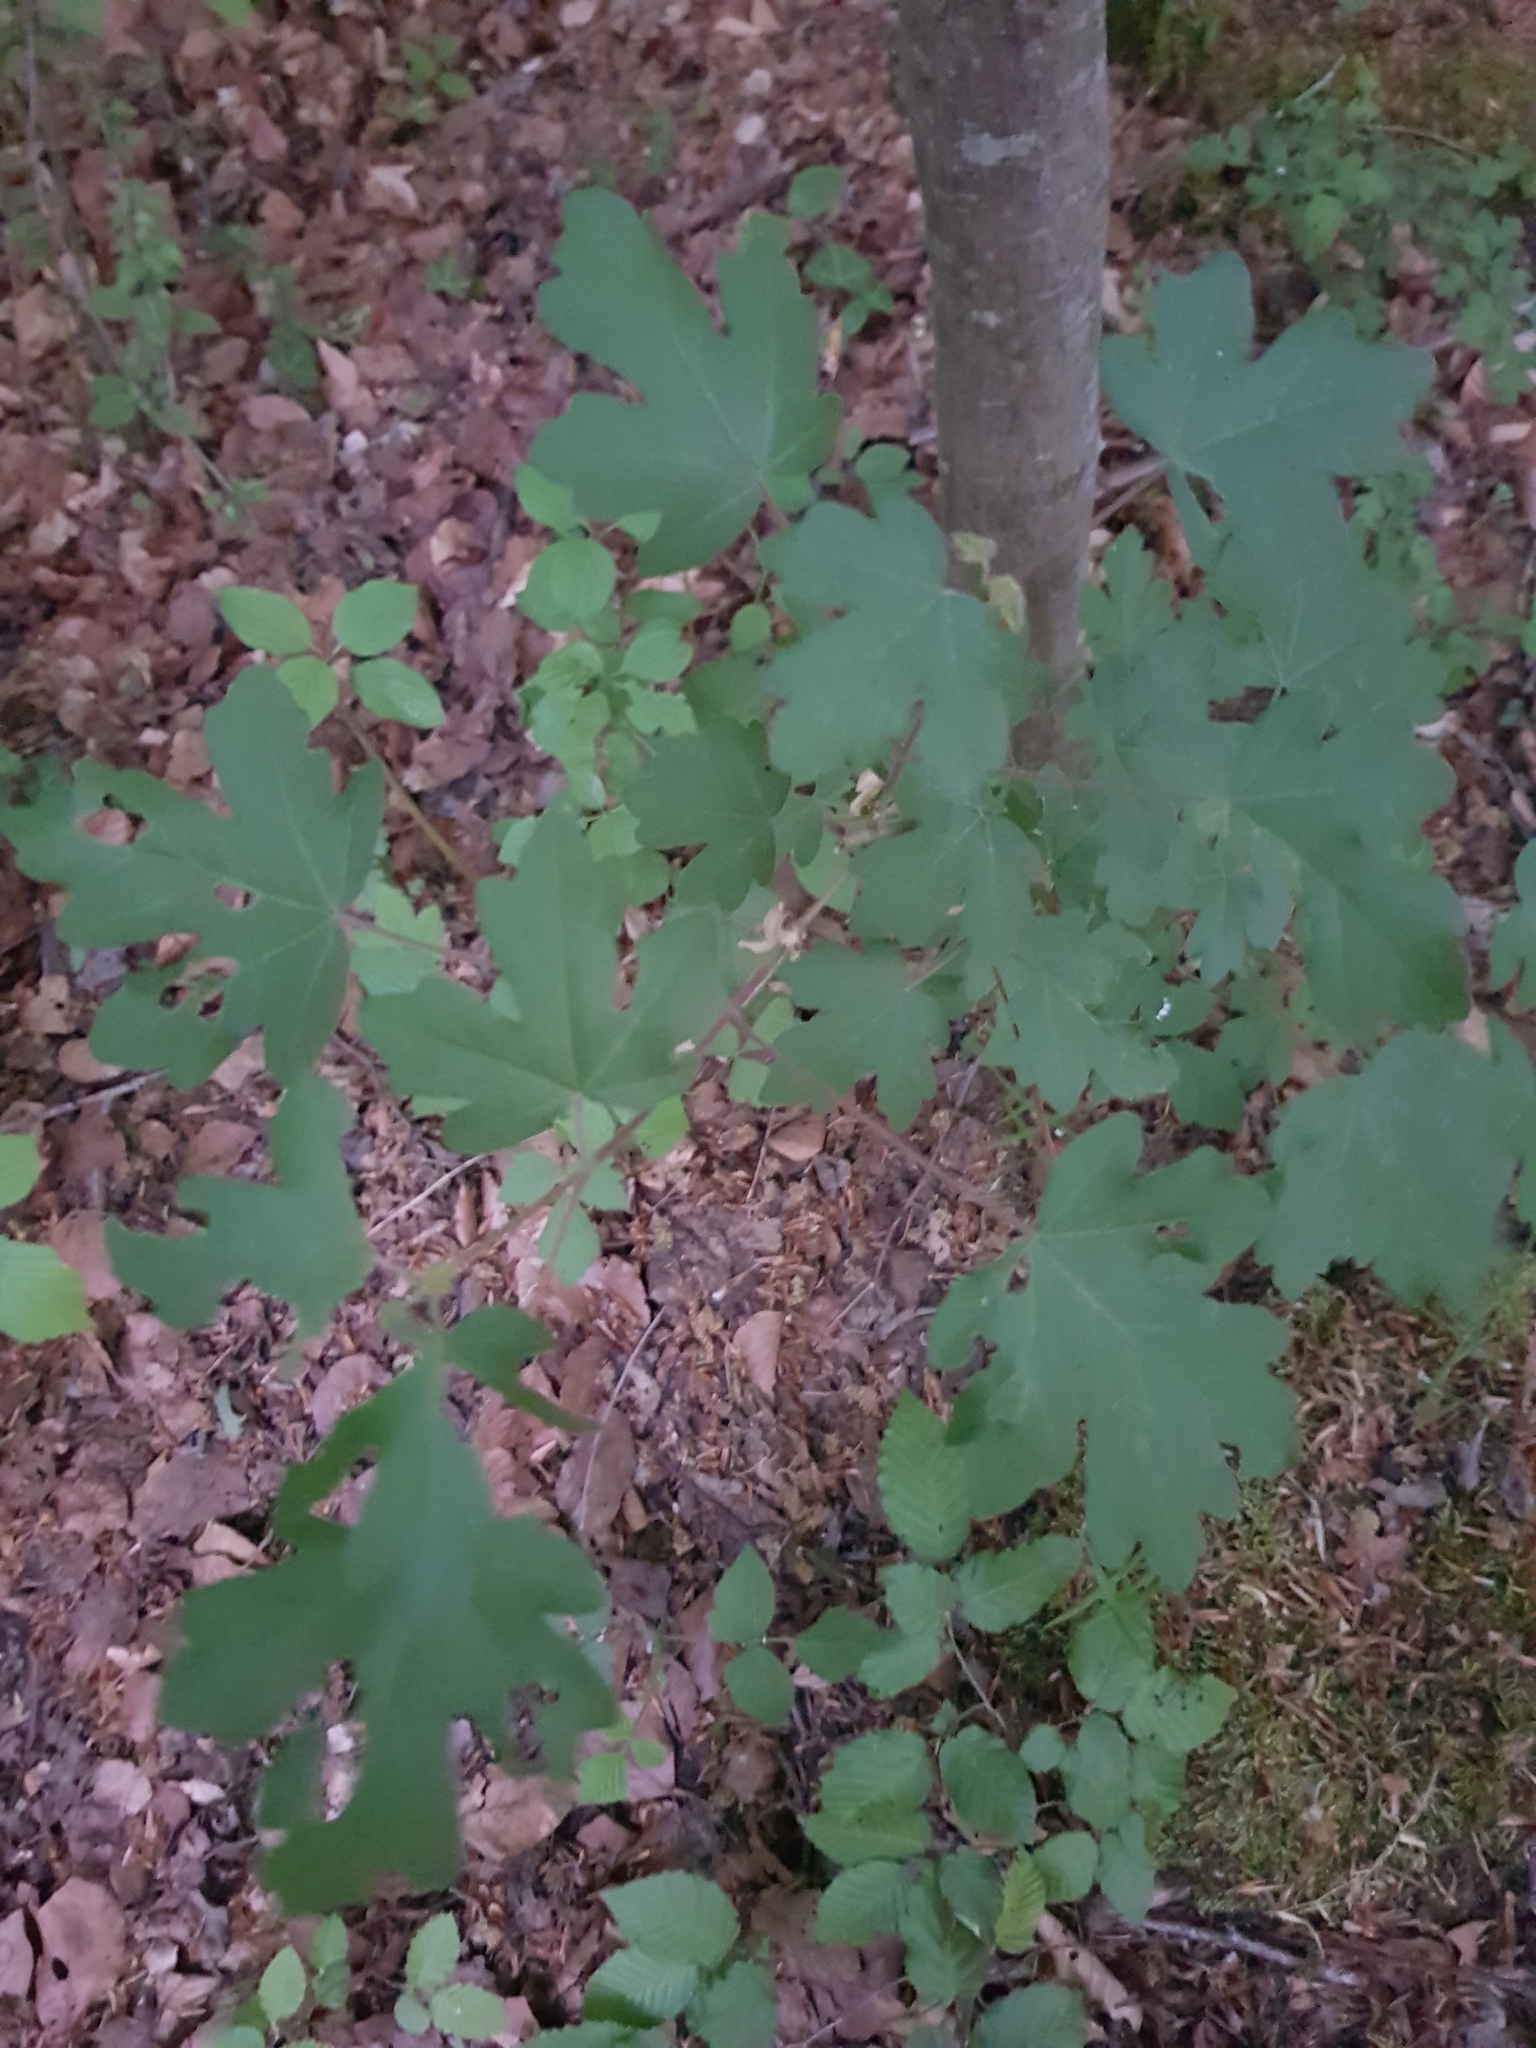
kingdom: Plantae
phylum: Tracheophyta
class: Magnoliopsida
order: Sapindales
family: Sapindaceae
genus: Acer
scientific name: Acer campestre
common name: Field maple
